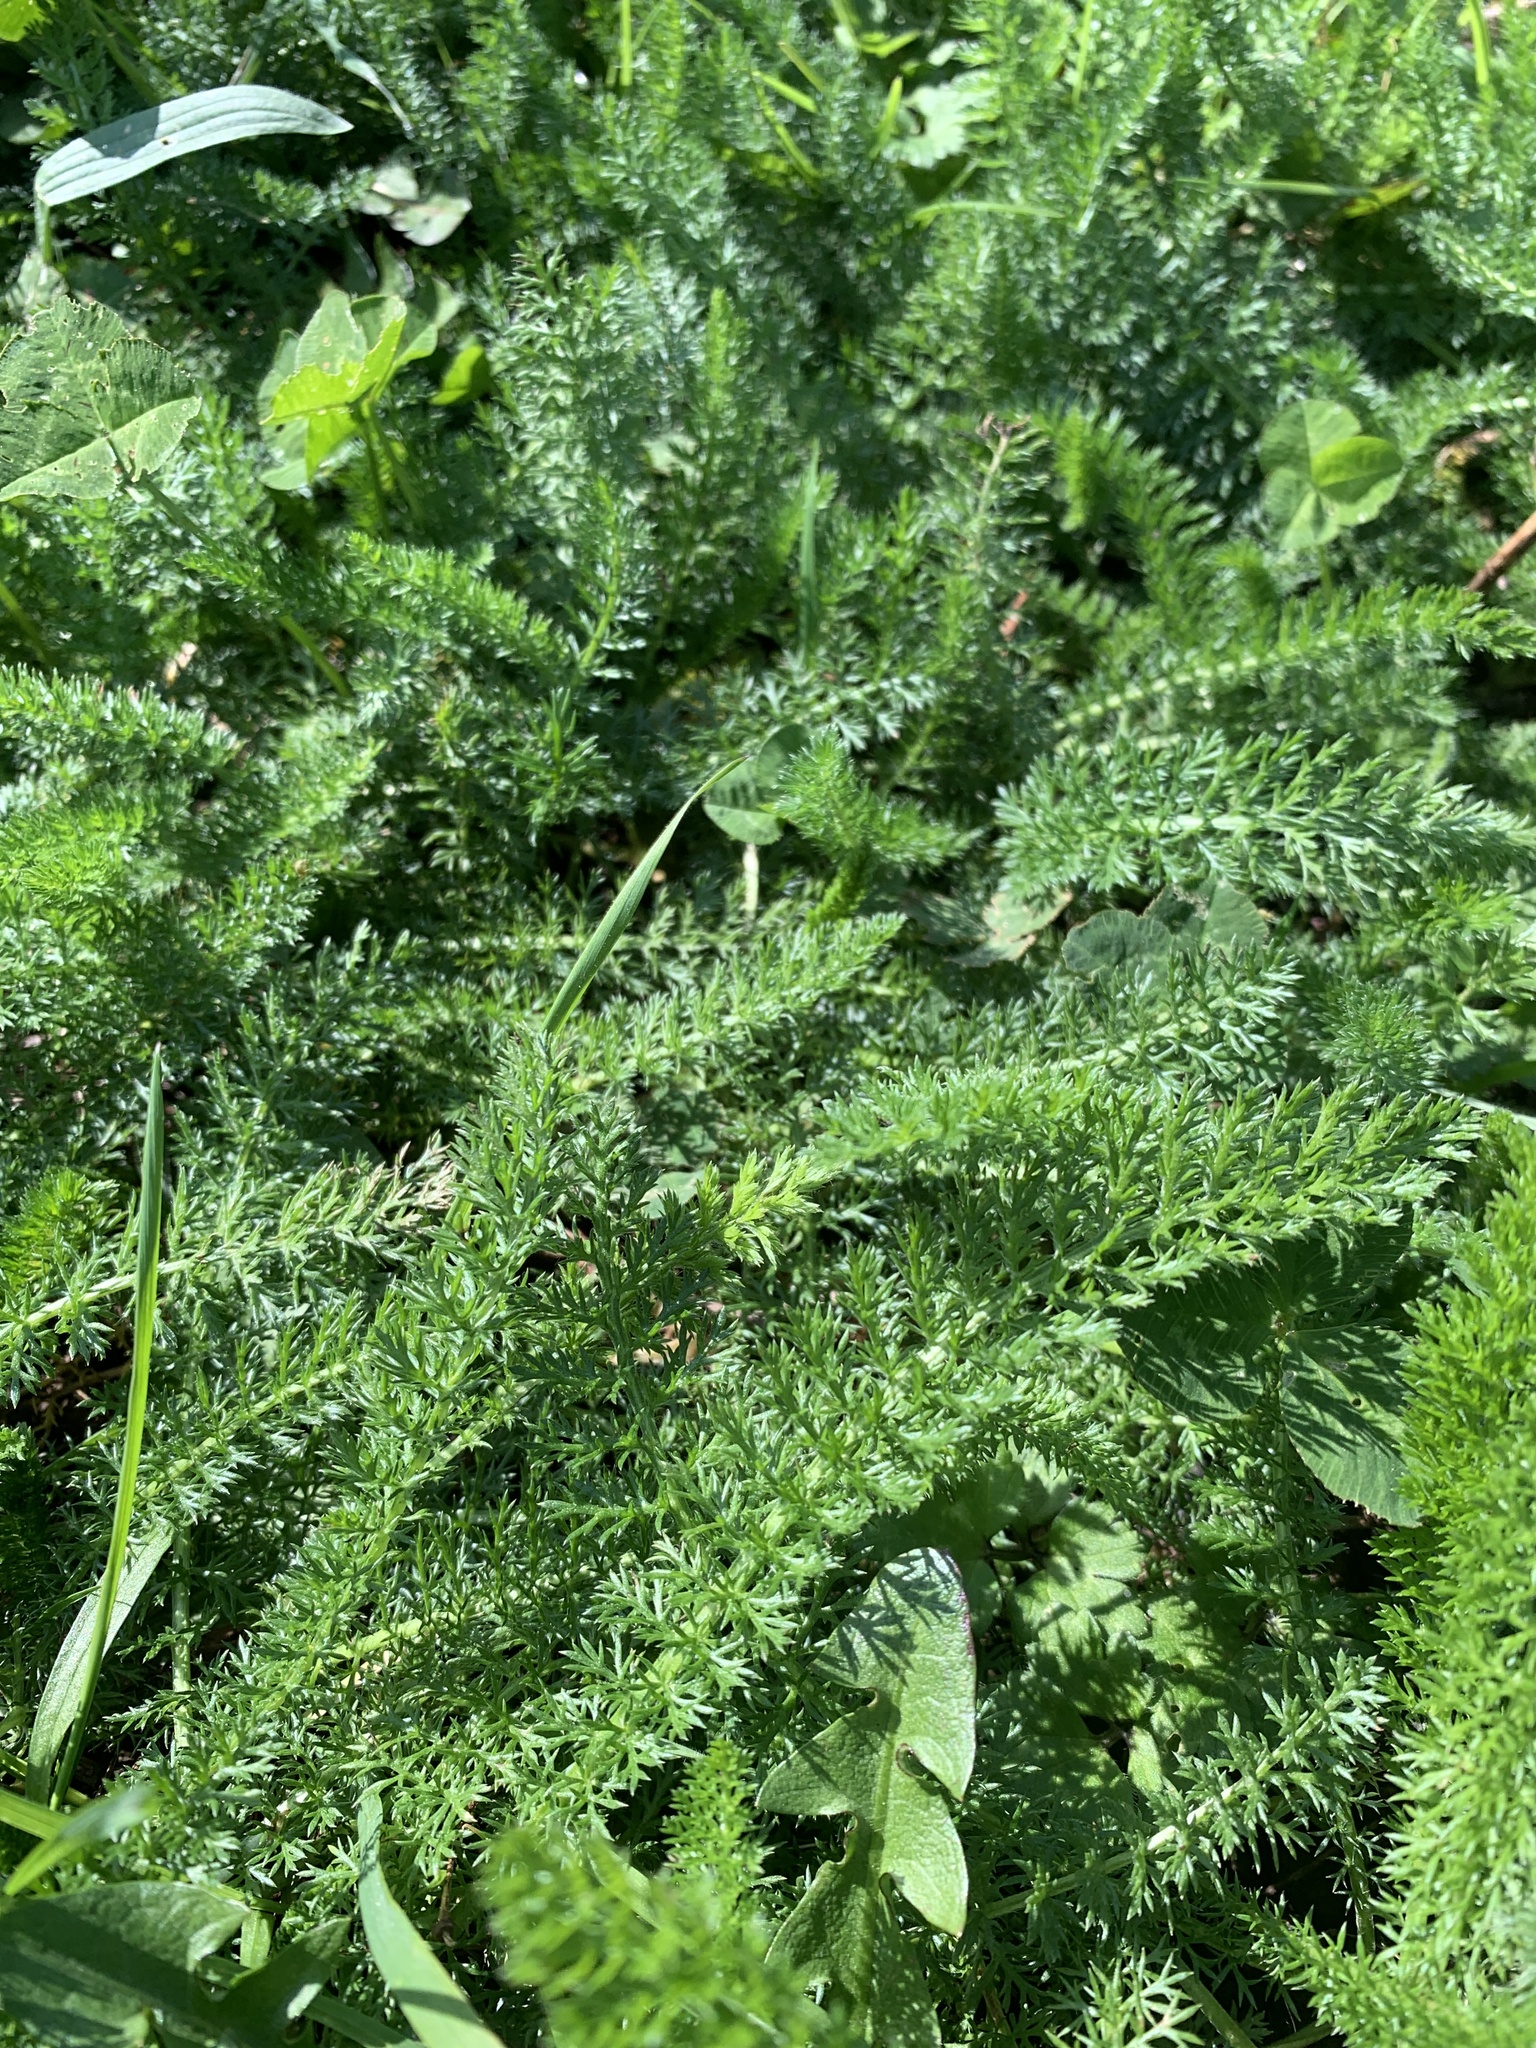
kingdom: Plantae
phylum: Tracheophyta
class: Magnoliopsida
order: Asterales
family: Asteraceae
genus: Achillea
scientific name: Achillea millefolium
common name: Yarrow
